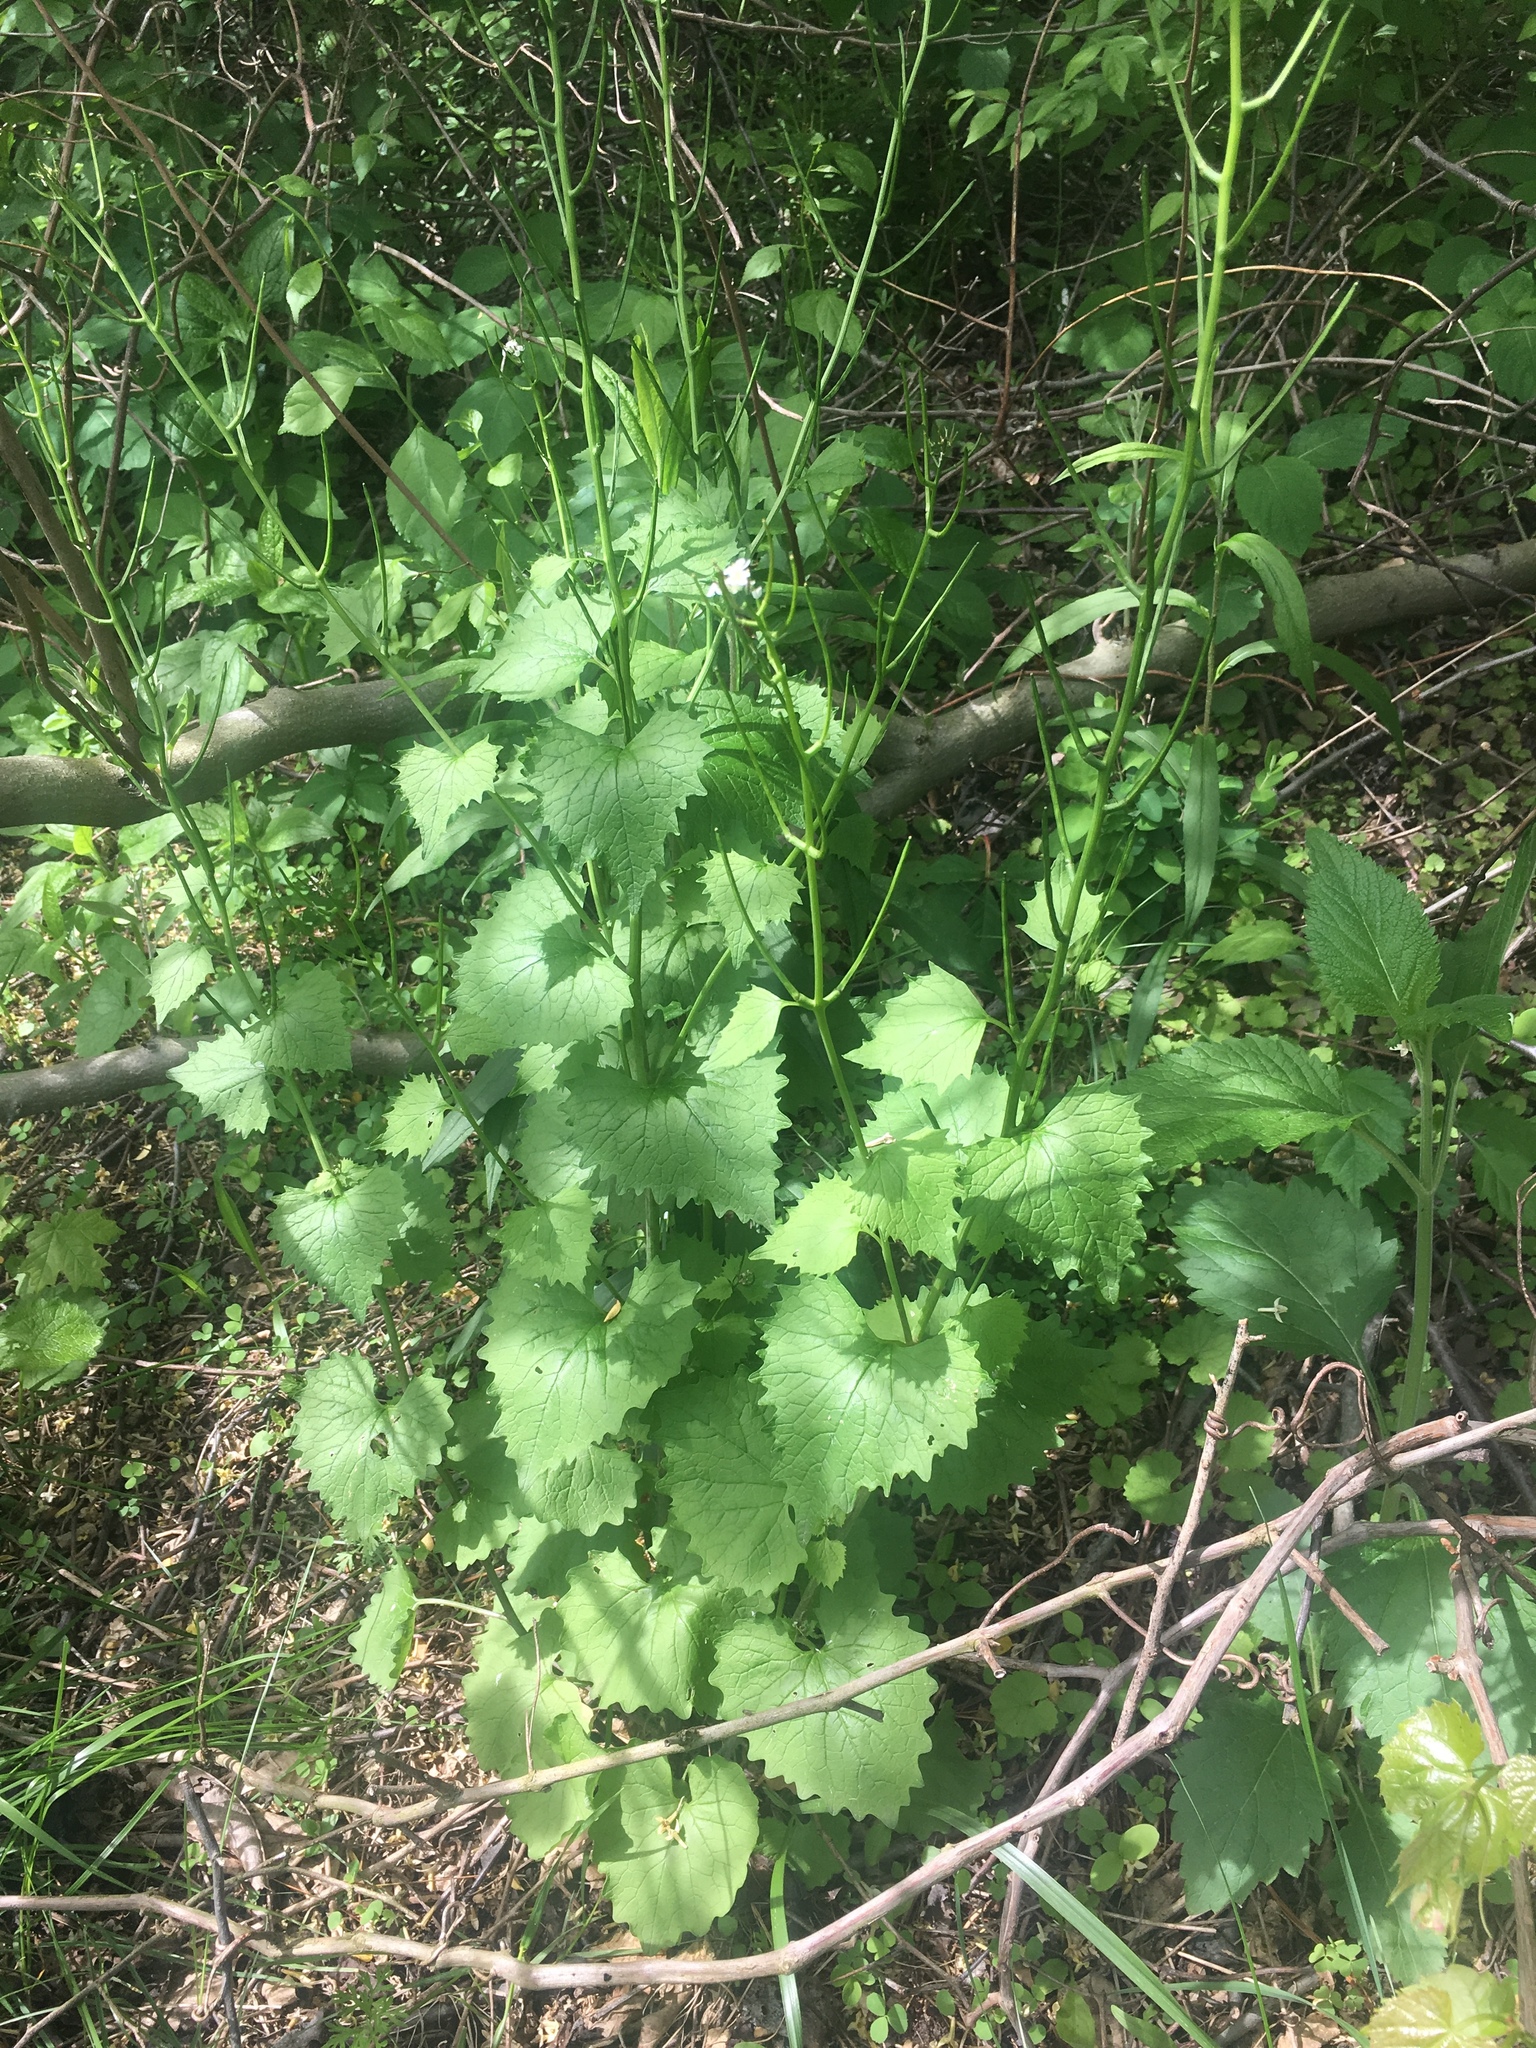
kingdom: Plantae
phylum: Tracheophyta
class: Magnoliopsida
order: Brassicales
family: Brassicaceae
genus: Alliaria
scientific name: Alliaria petiolata
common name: Garlic mustard
